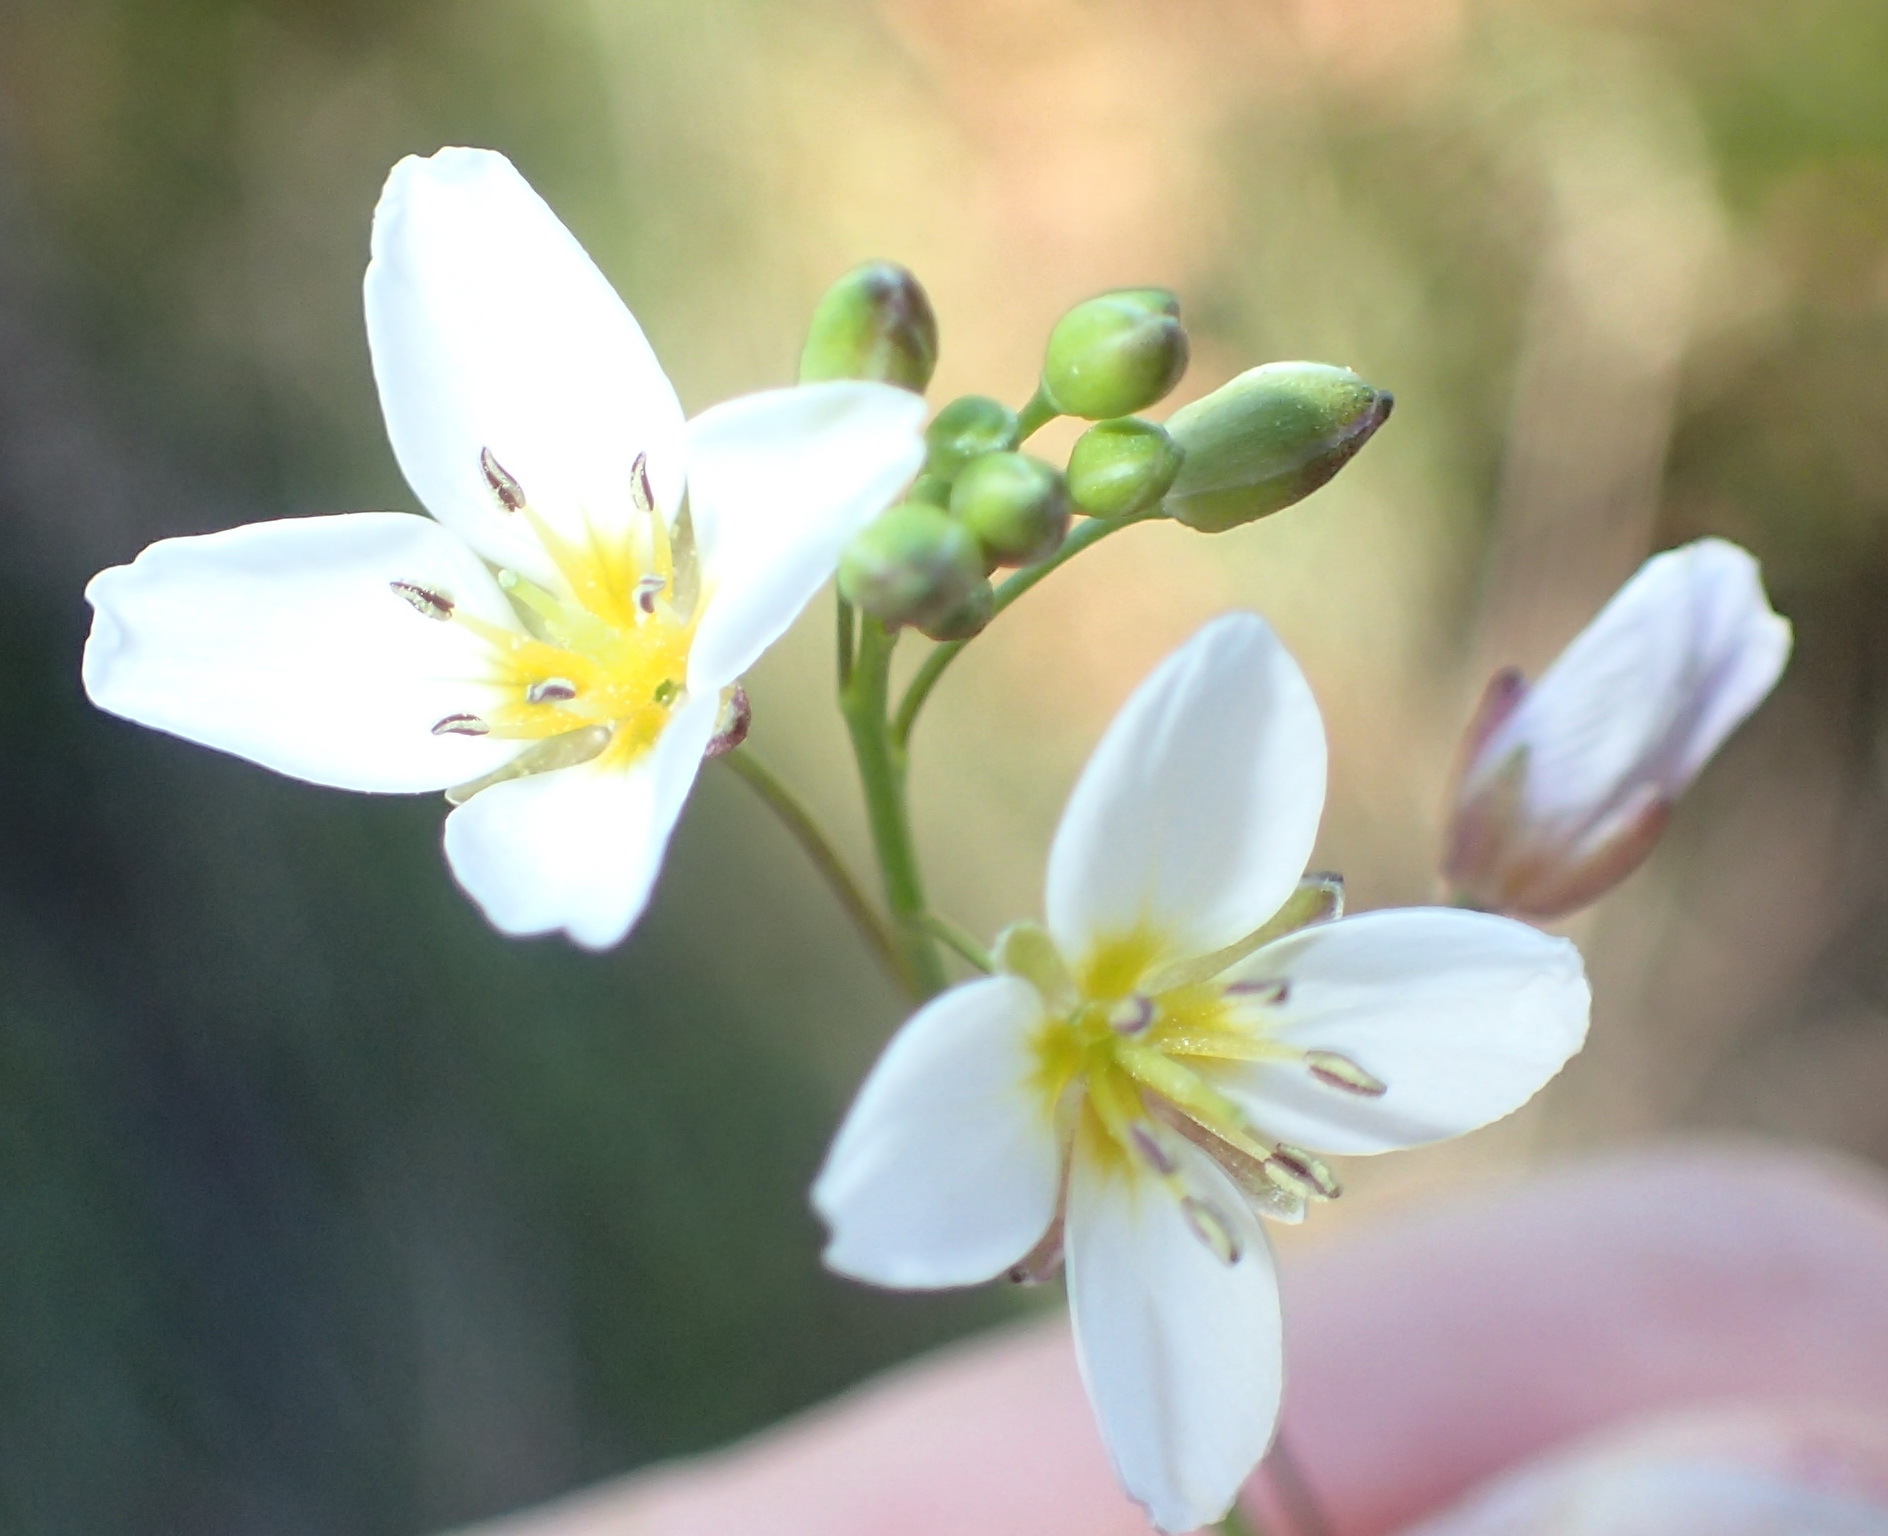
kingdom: Plantae
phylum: Tracheophyta
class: Magnoliopsida
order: Brassicales
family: Brassicaceae
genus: Heliophila
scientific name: Heliophila pendula
